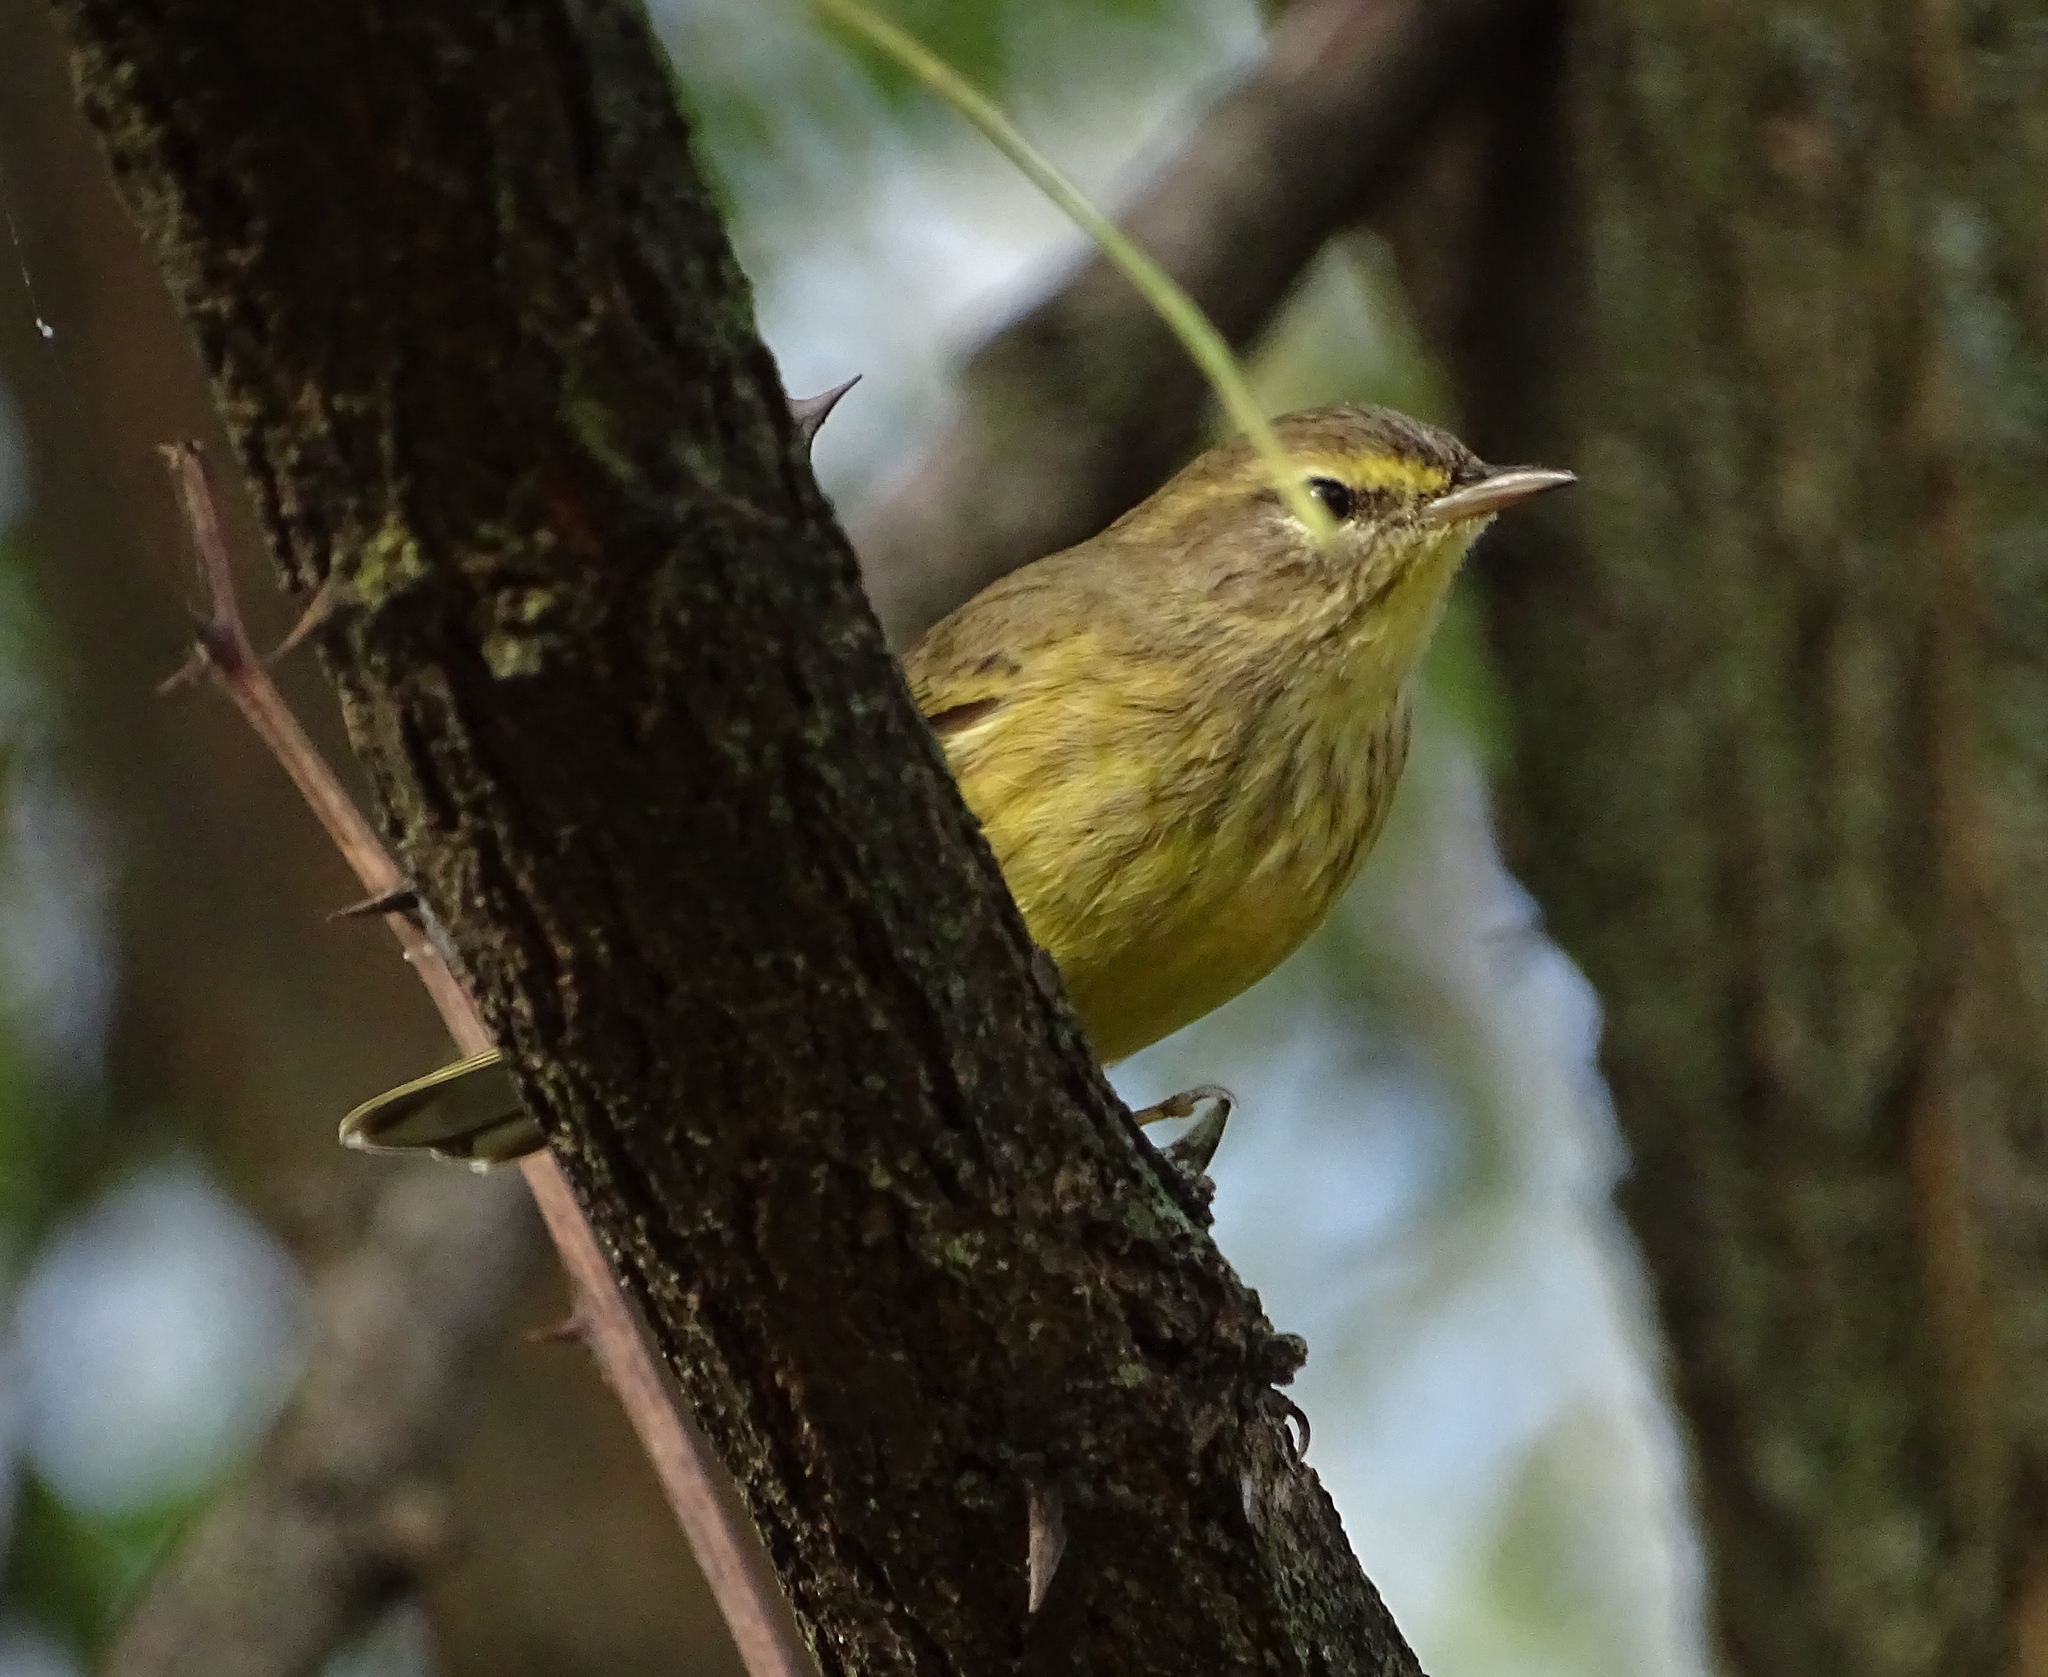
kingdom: Animalia
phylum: Chordata
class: Aves
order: Passeriformes
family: Parulidae
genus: Setophaga
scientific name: Setophaga palmarum
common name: Palm warbler
